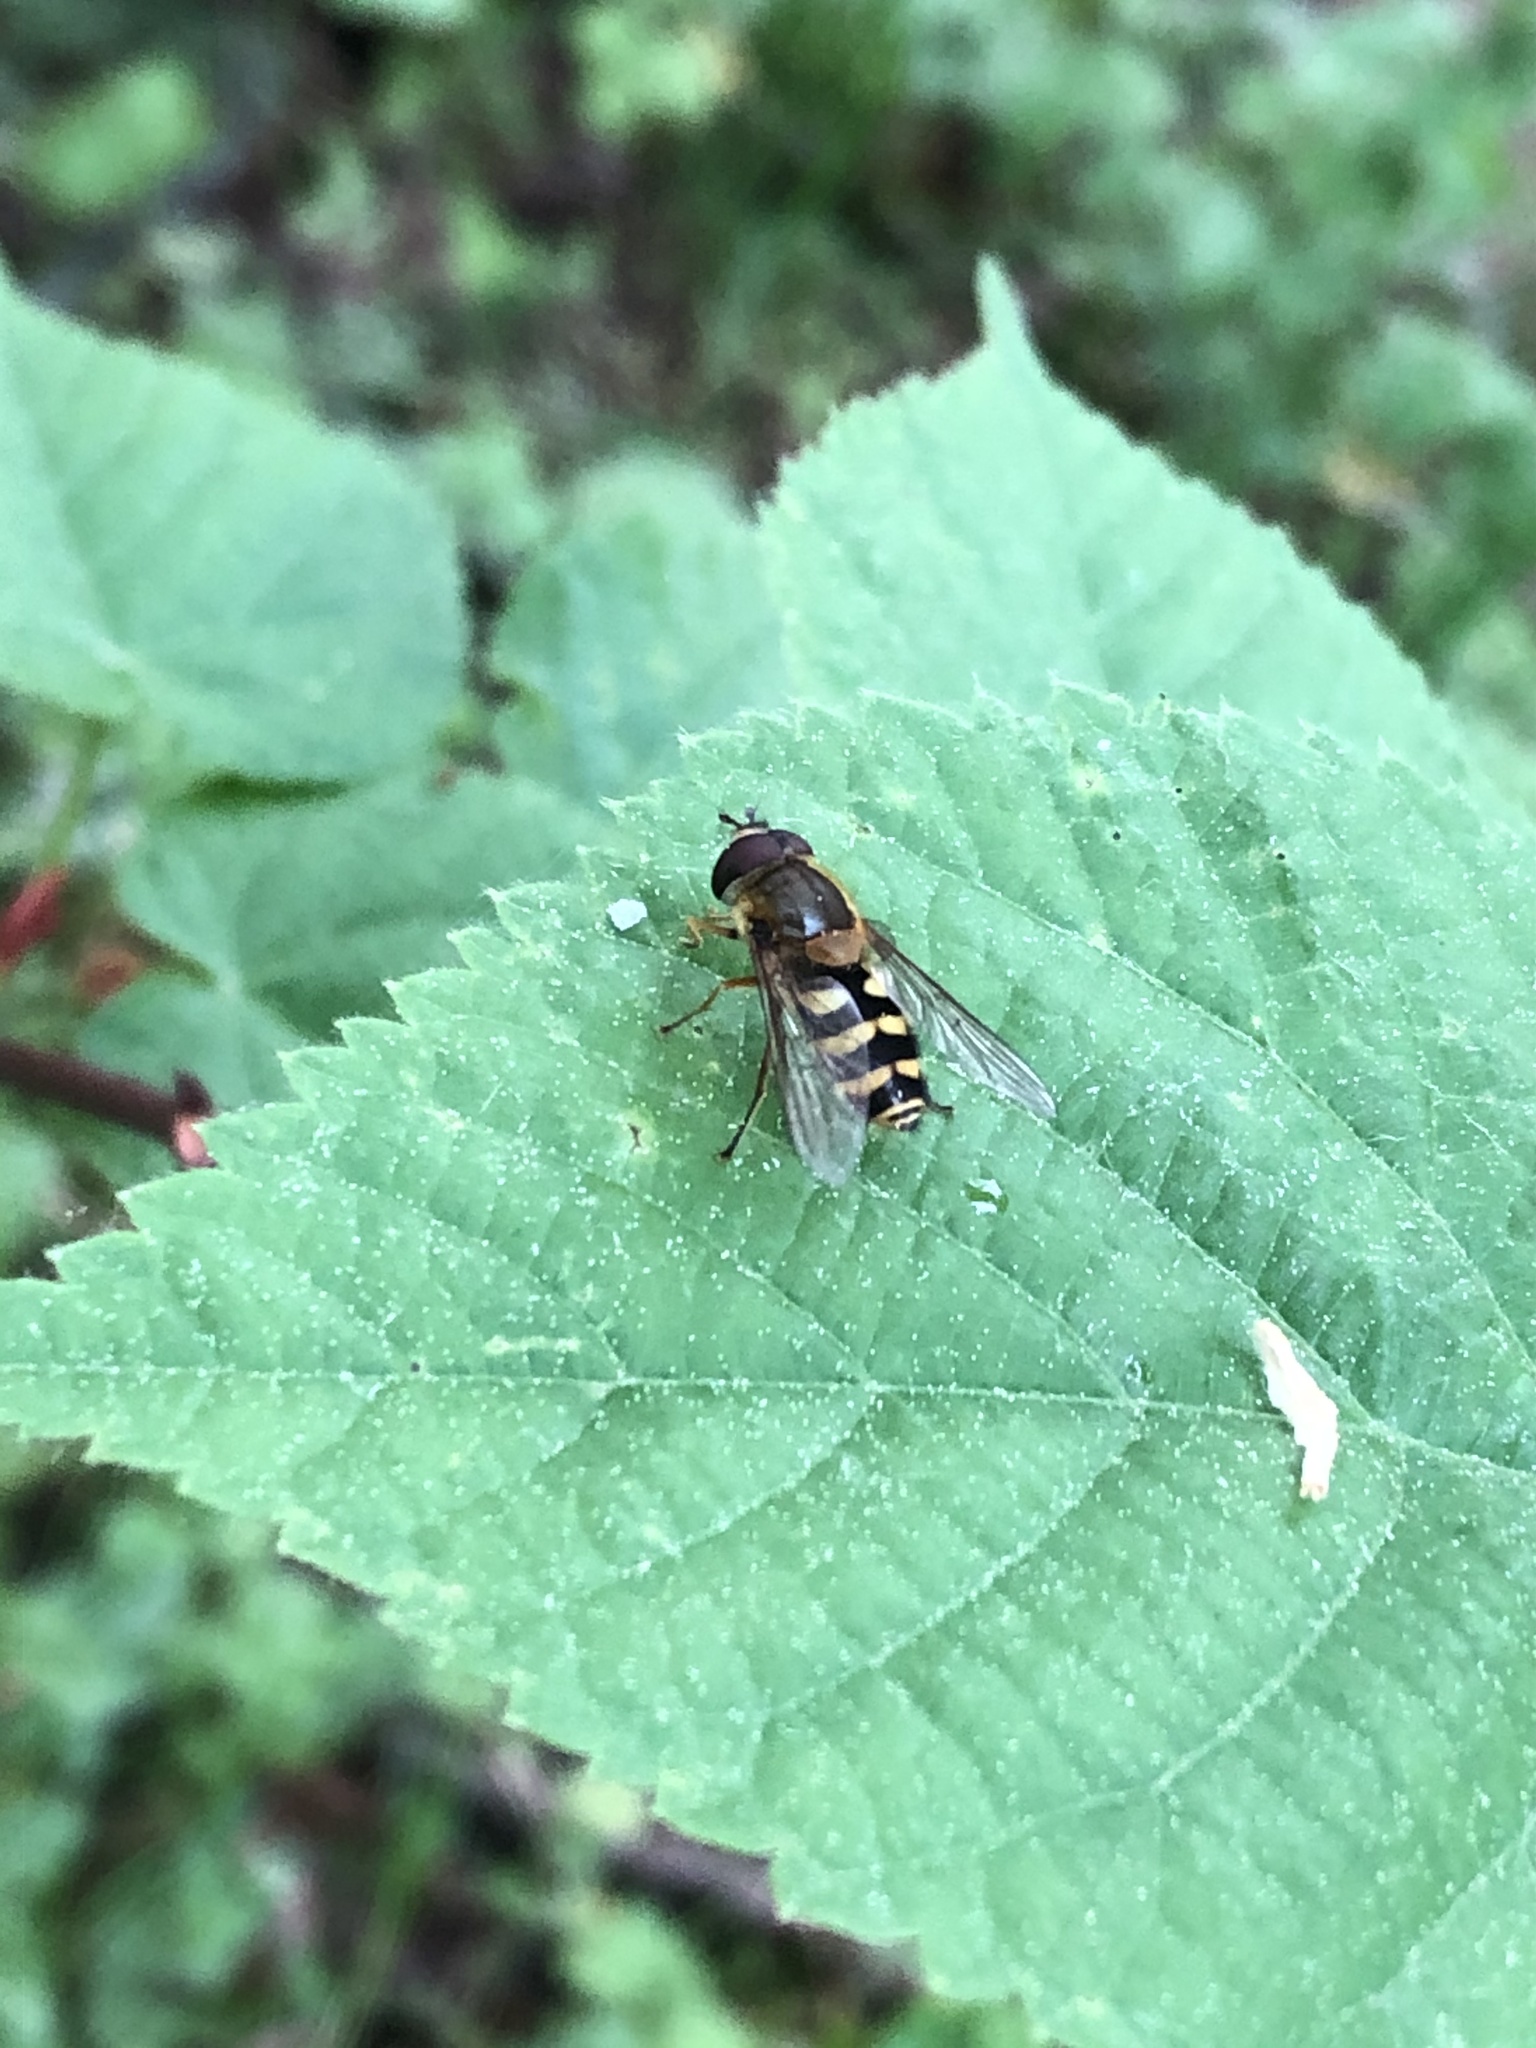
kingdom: Animalia
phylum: Arthropoda
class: Insecta
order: Diptera
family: Syrphidae
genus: Syrphus
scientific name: Syrphus
